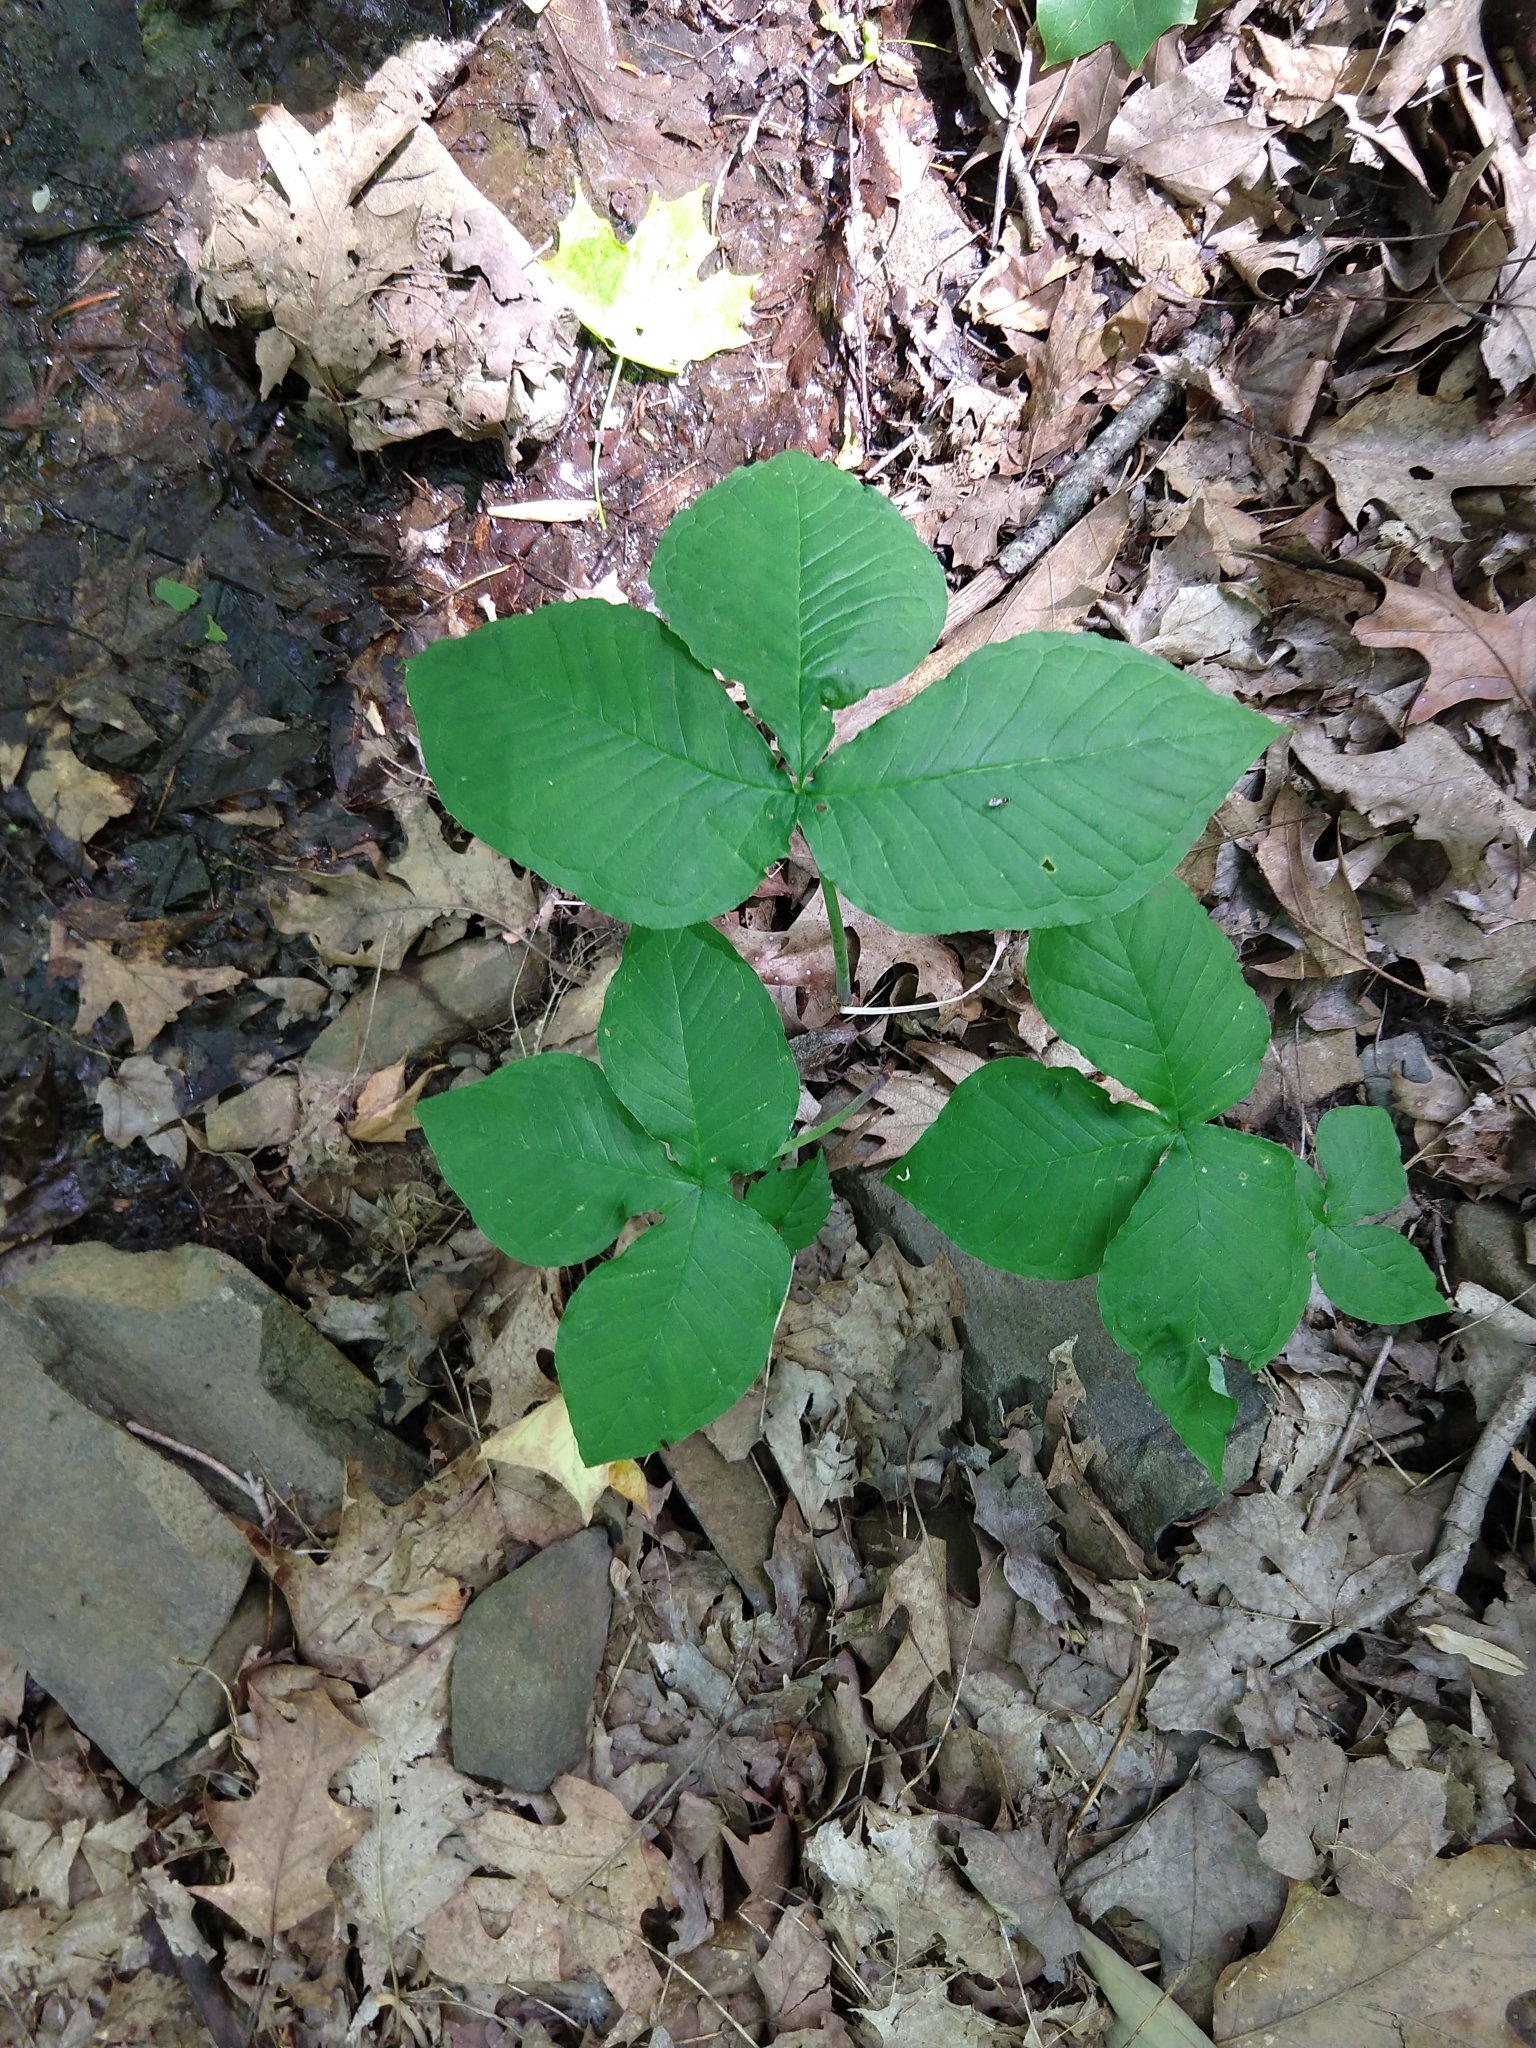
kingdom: Plantae
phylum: Tracheophyta
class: Liliopsida
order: Alismatales
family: Araceae
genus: Arisaema
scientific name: Arisaema triphyllum
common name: Jack-in-the-pulpit
